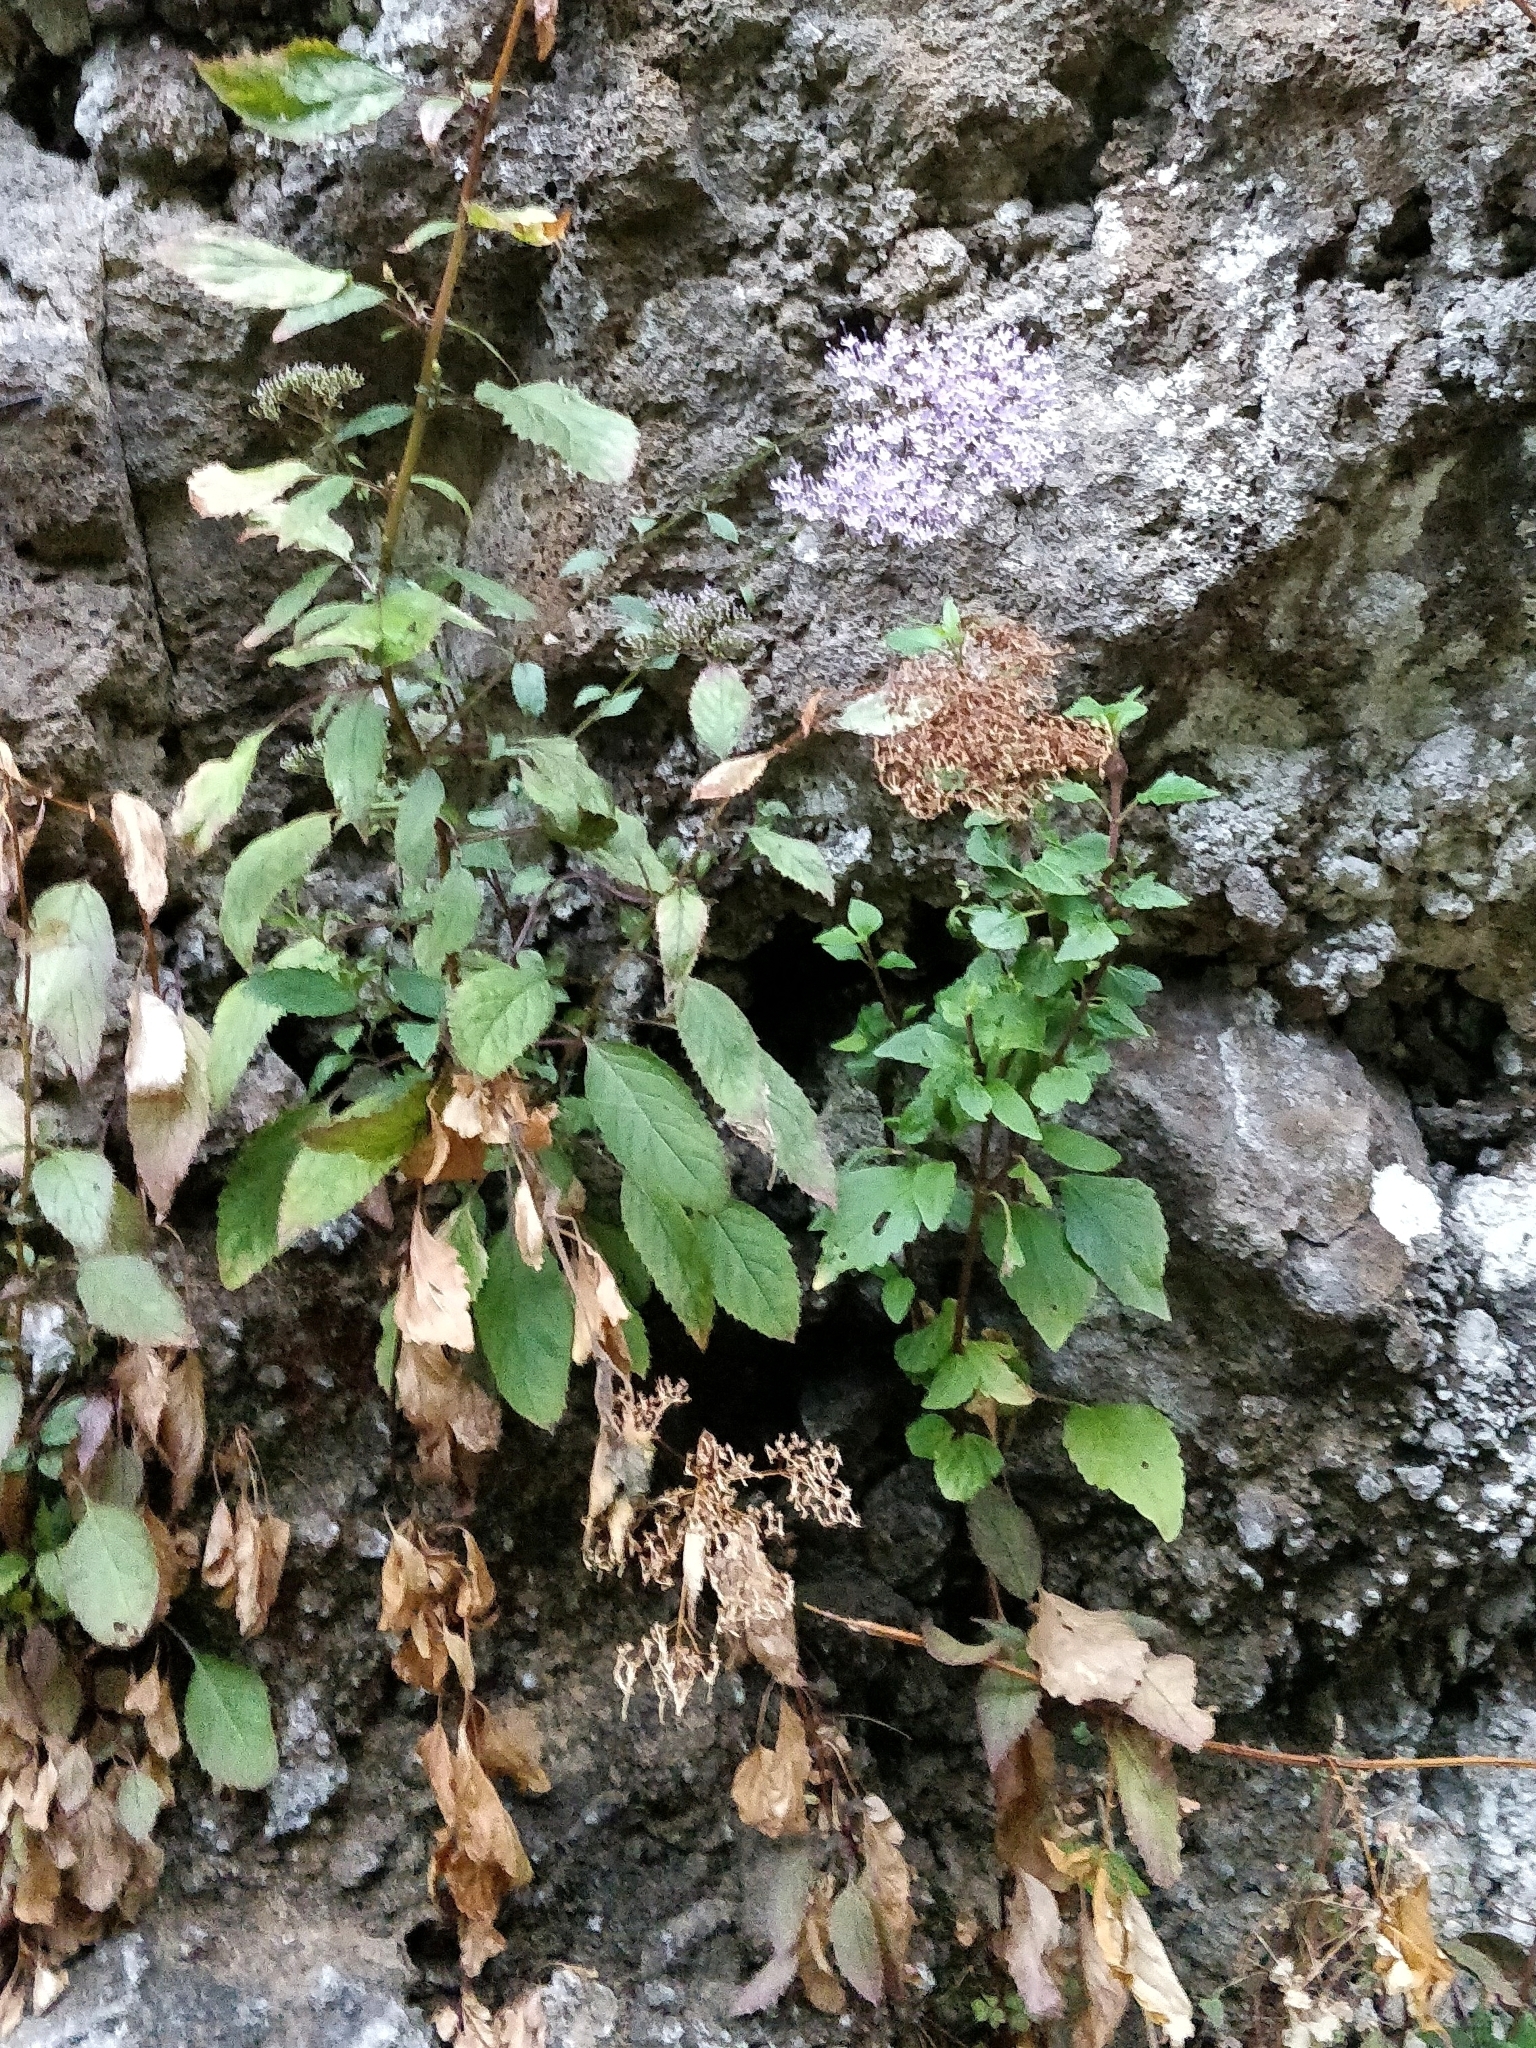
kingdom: Plantae
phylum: Tracheophyta
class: Magnoliopsida
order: Asterales
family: Campanulaceae
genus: Trachelium
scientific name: Trachelium caeruleum
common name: Throatwort
